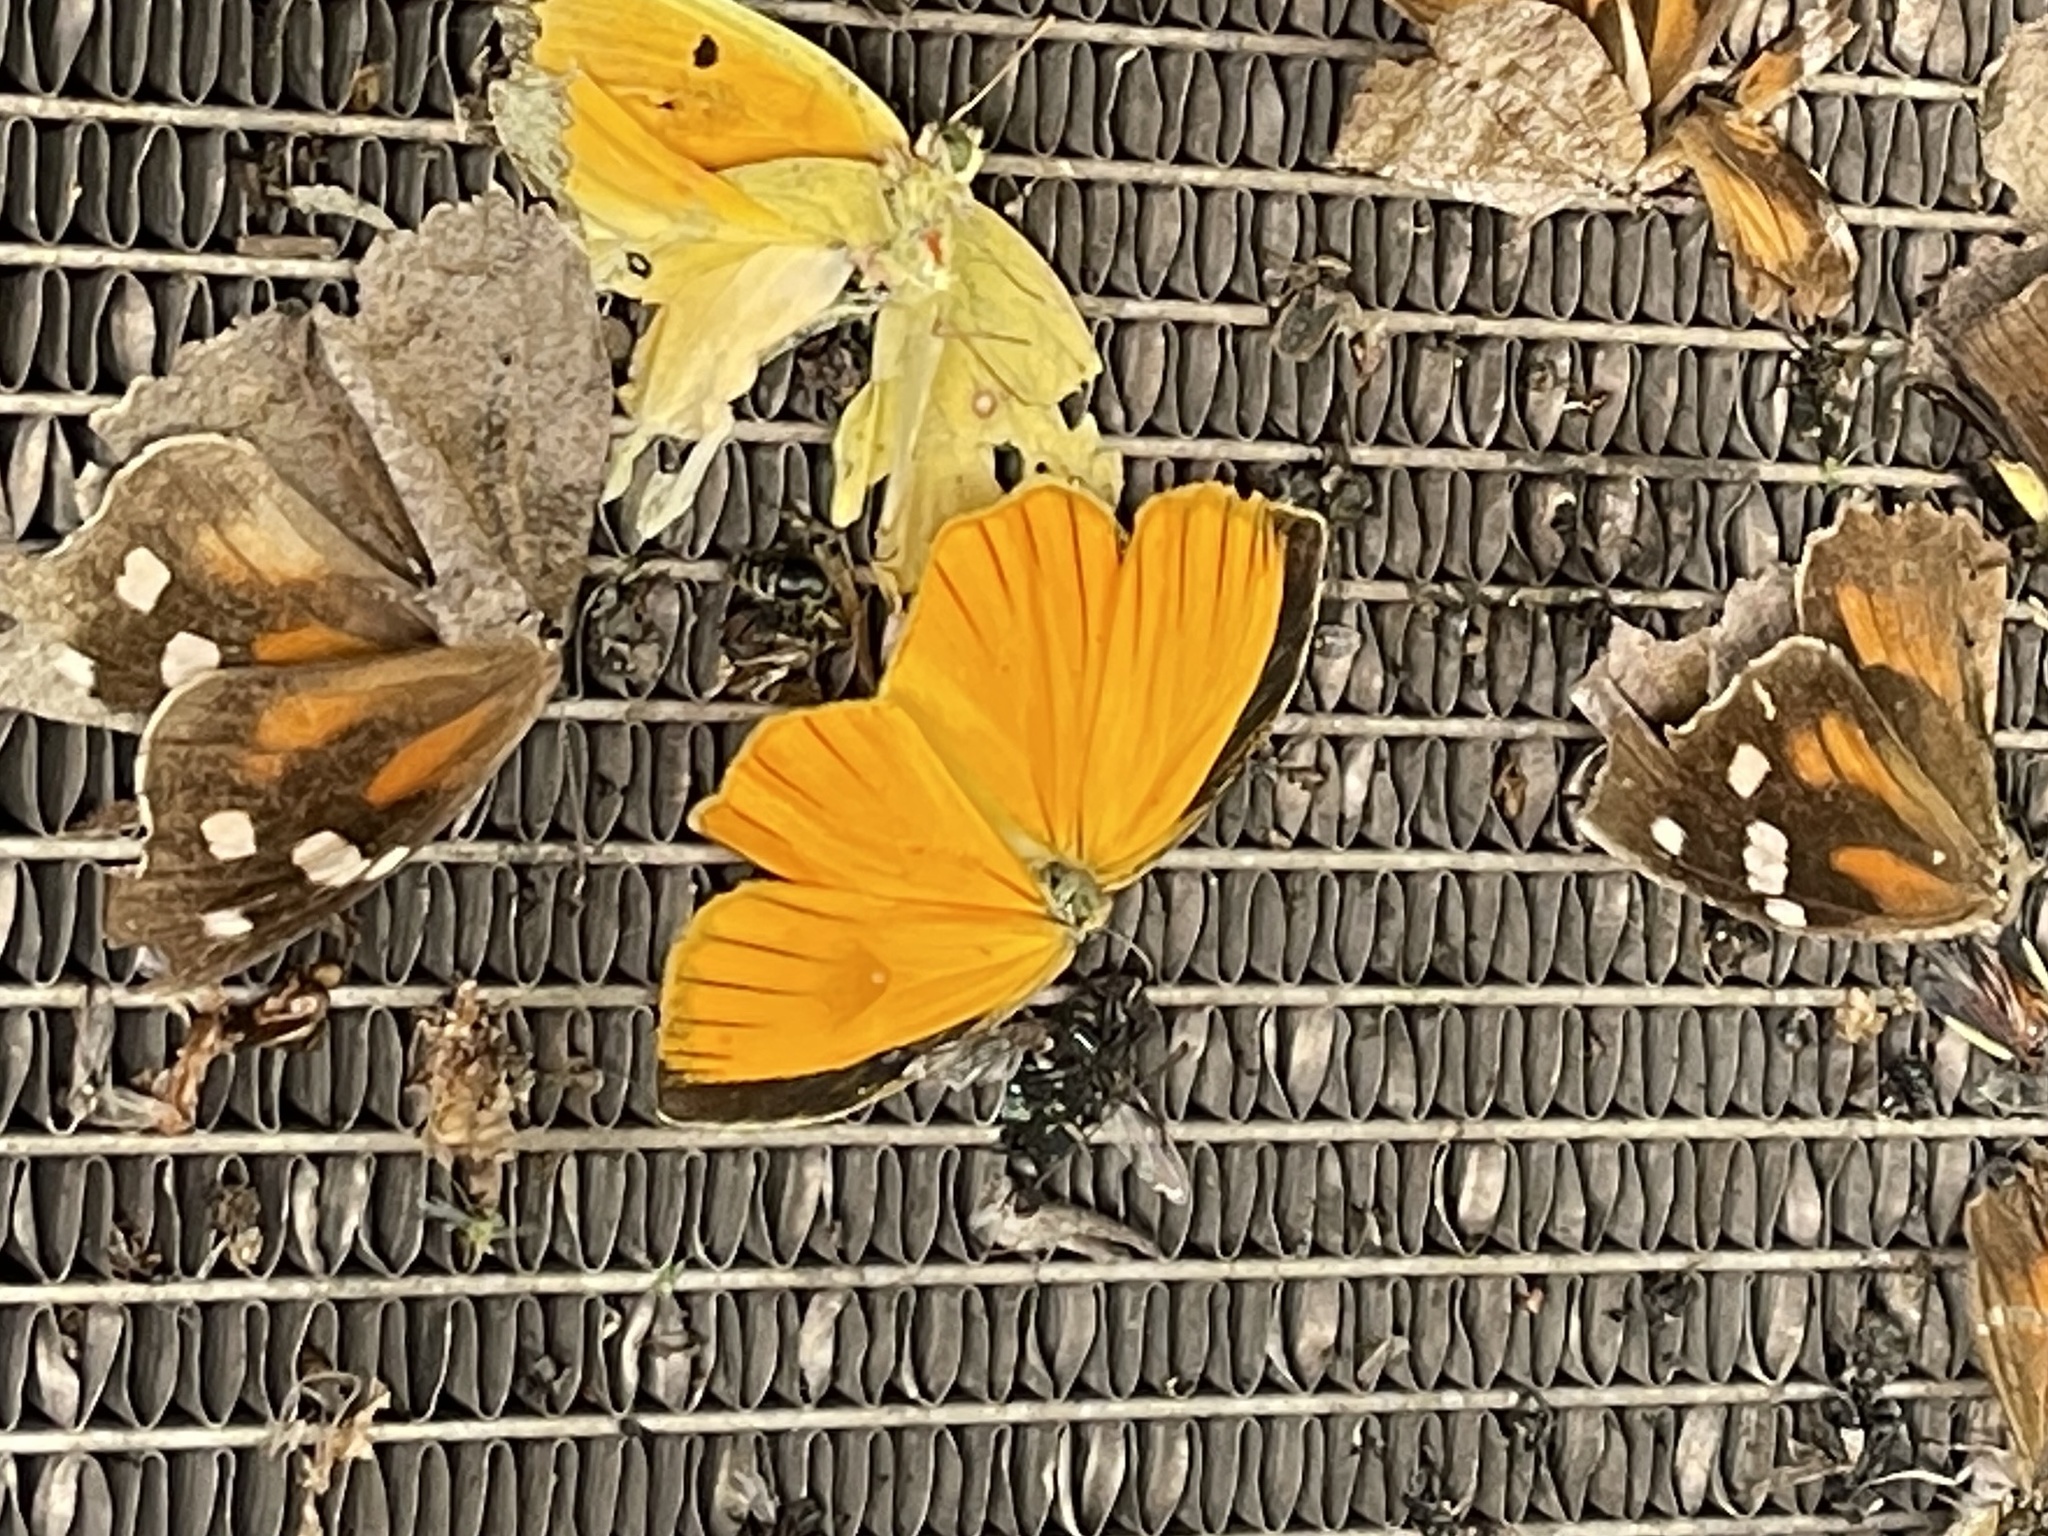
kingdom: Animalia
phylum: Arthropoda
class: Insecta
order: Lepidoptera
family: Pieridae
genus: Pyrisitia
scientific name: Pyrisitia proterpia
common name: Tailed orange
